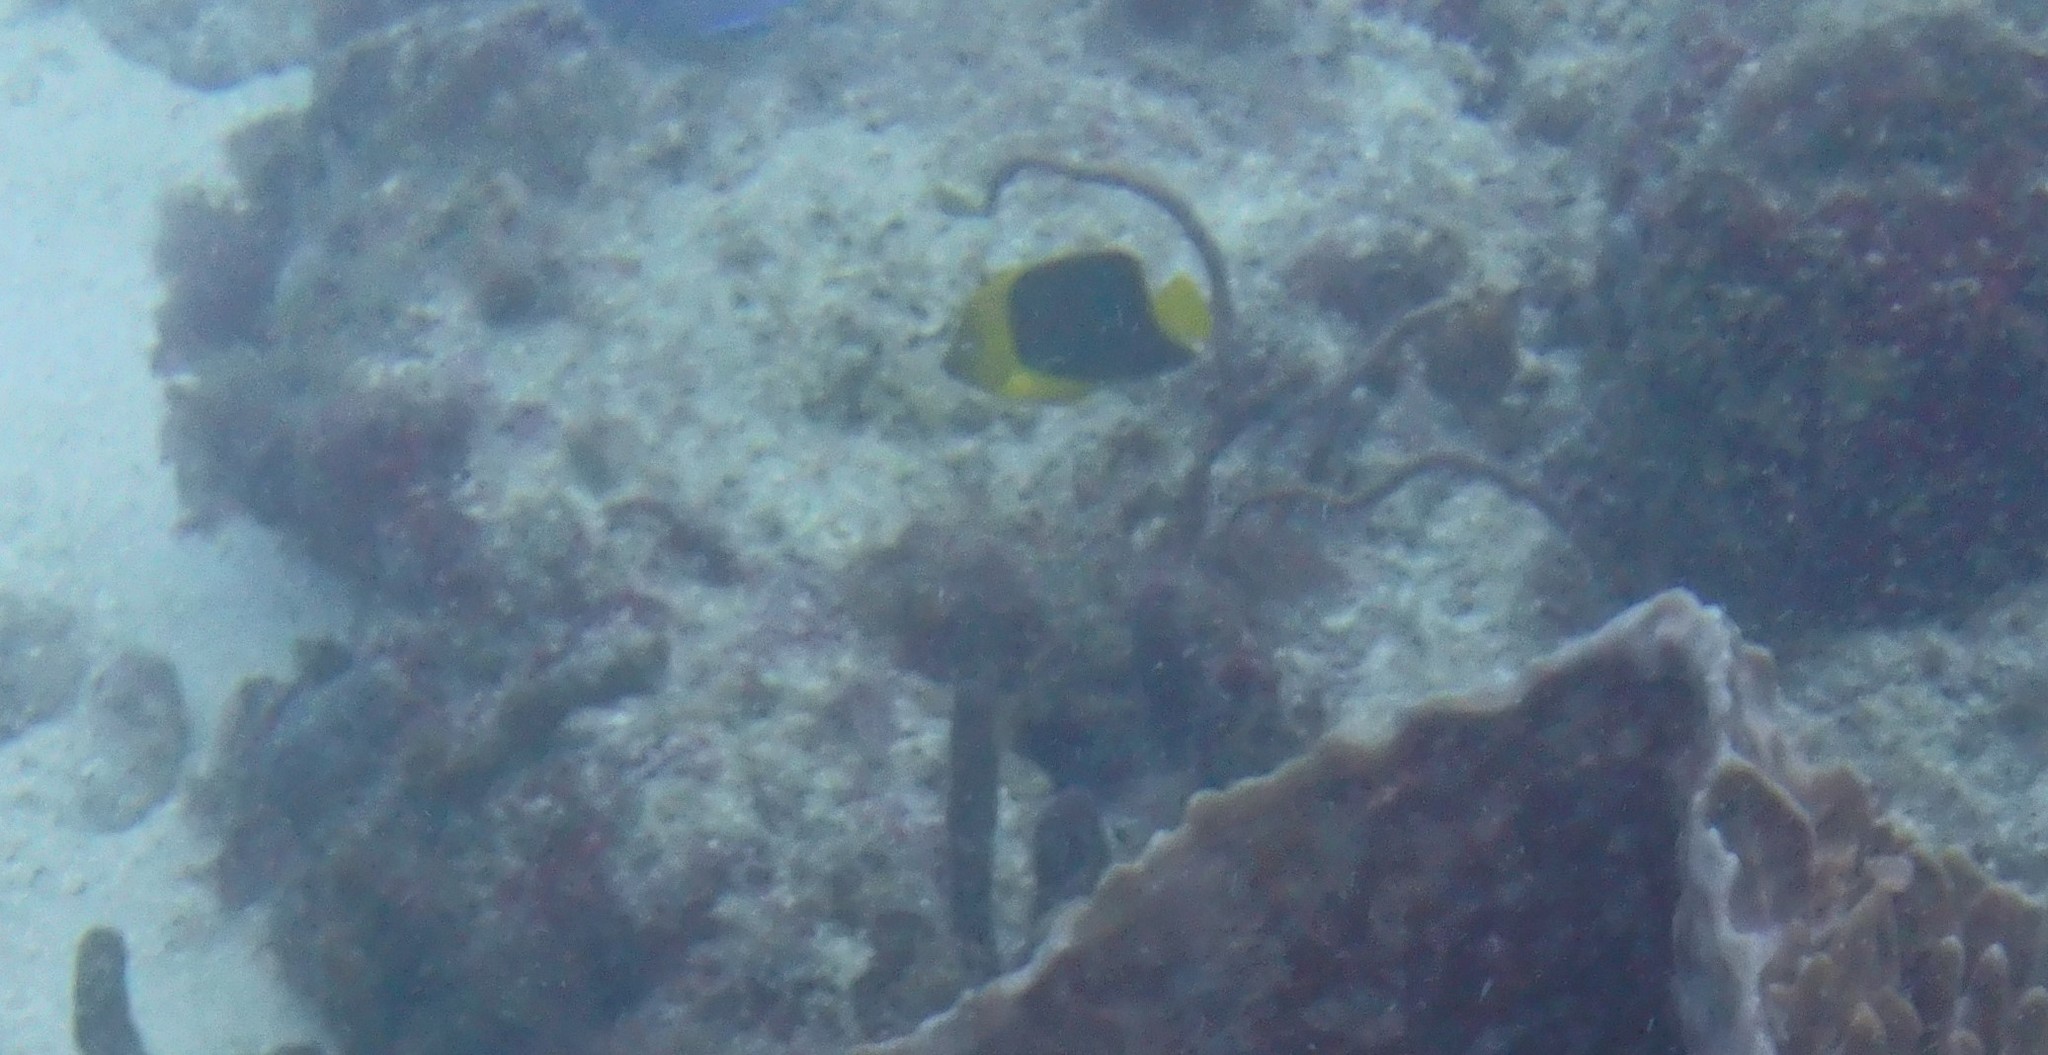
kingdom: Animalia
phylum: Chordata
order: Perciformes
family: Pomacanthidae
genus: Holacanthus
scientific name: Holacanthus tricolor
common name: Rock beauty
